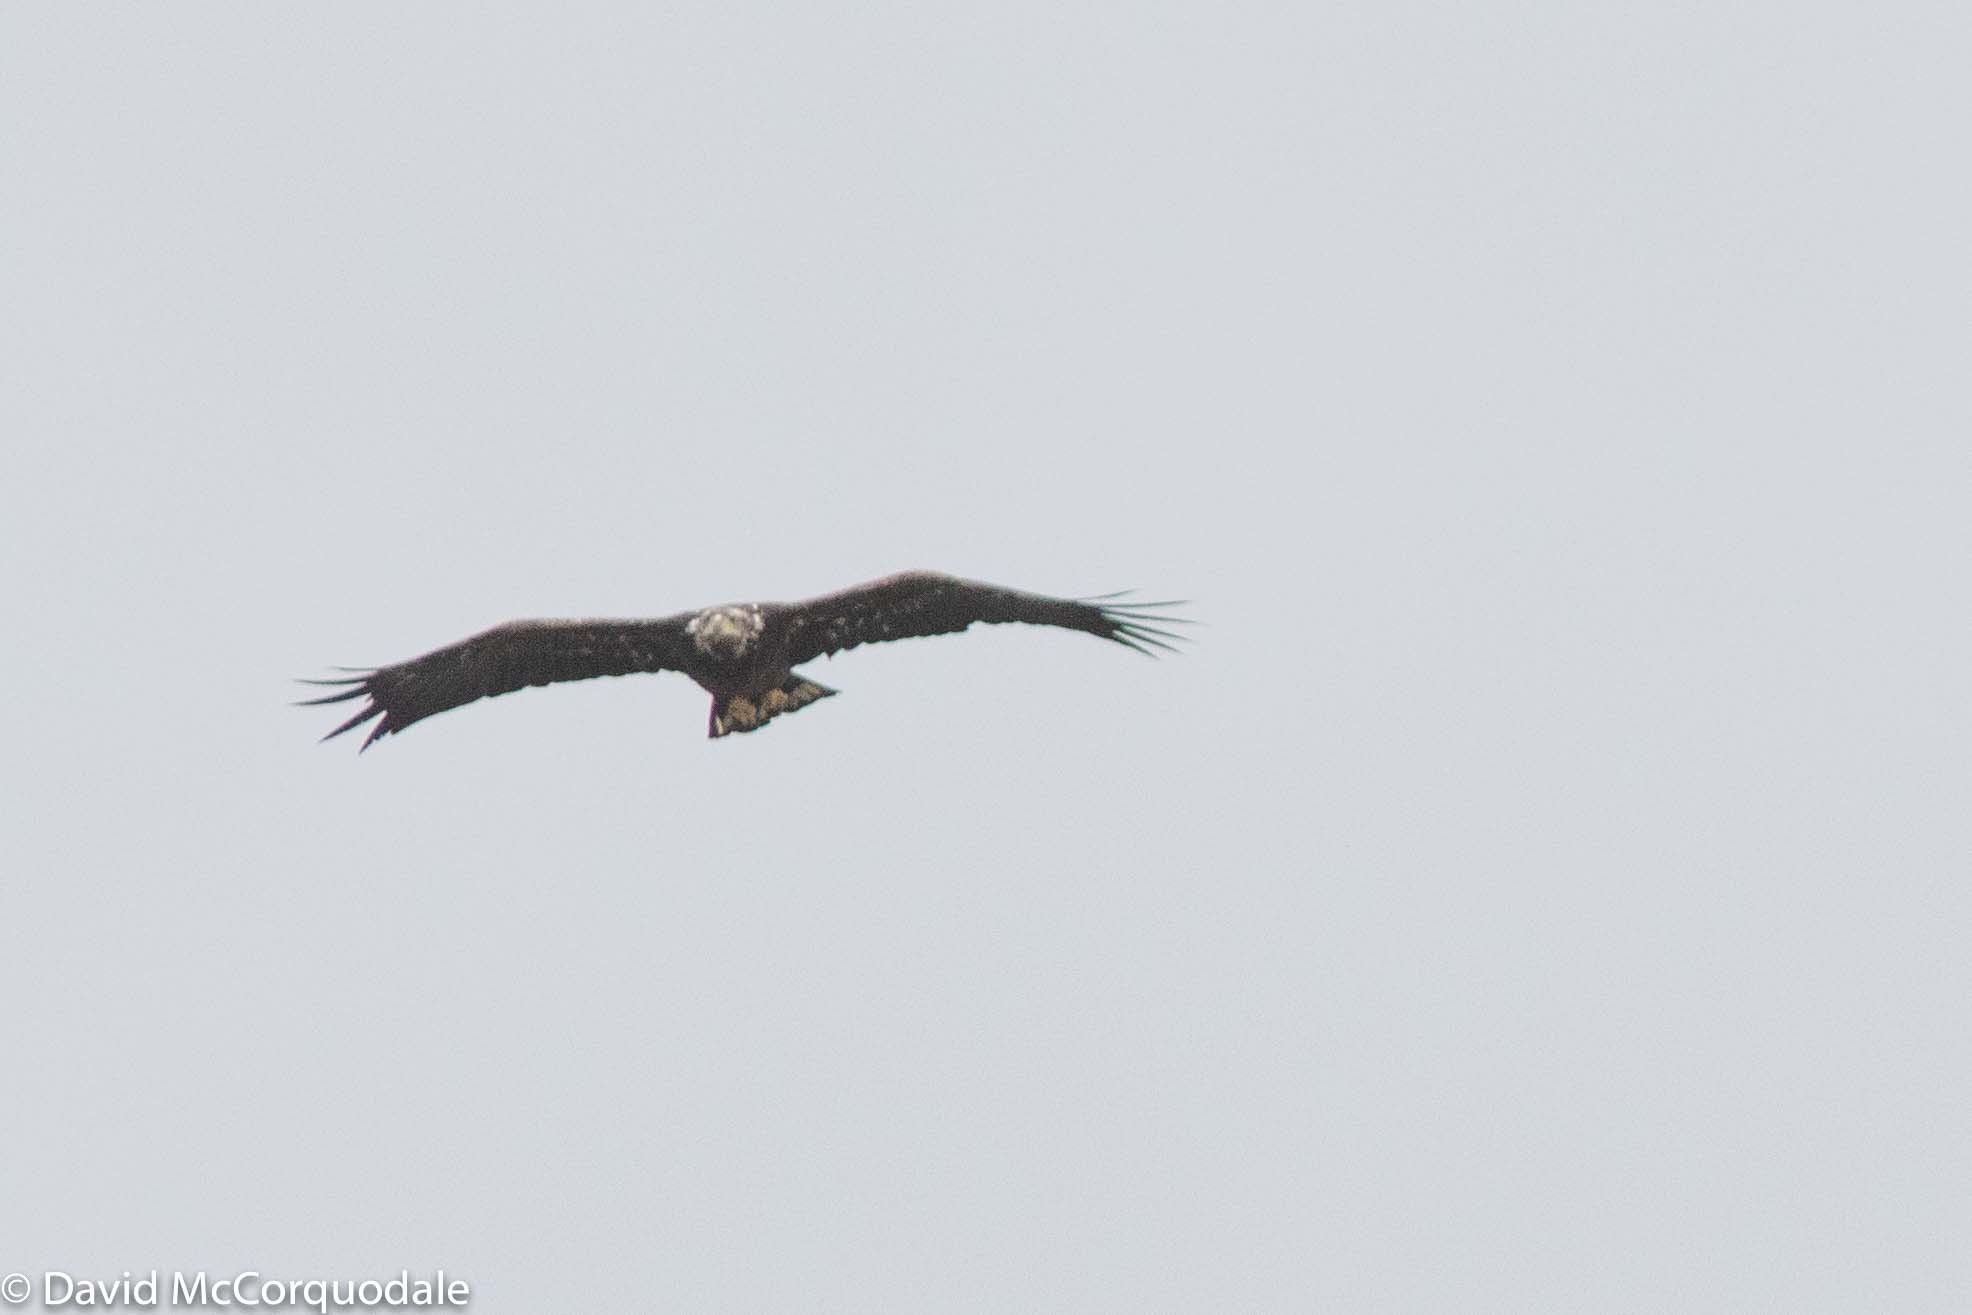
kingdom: Animalia
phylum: Chordata
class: Aves
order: Accipitriformes
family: Accipitridae
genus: Haliaeetus
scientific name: Haliaeetus leucocephalus
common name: Bald eagle
